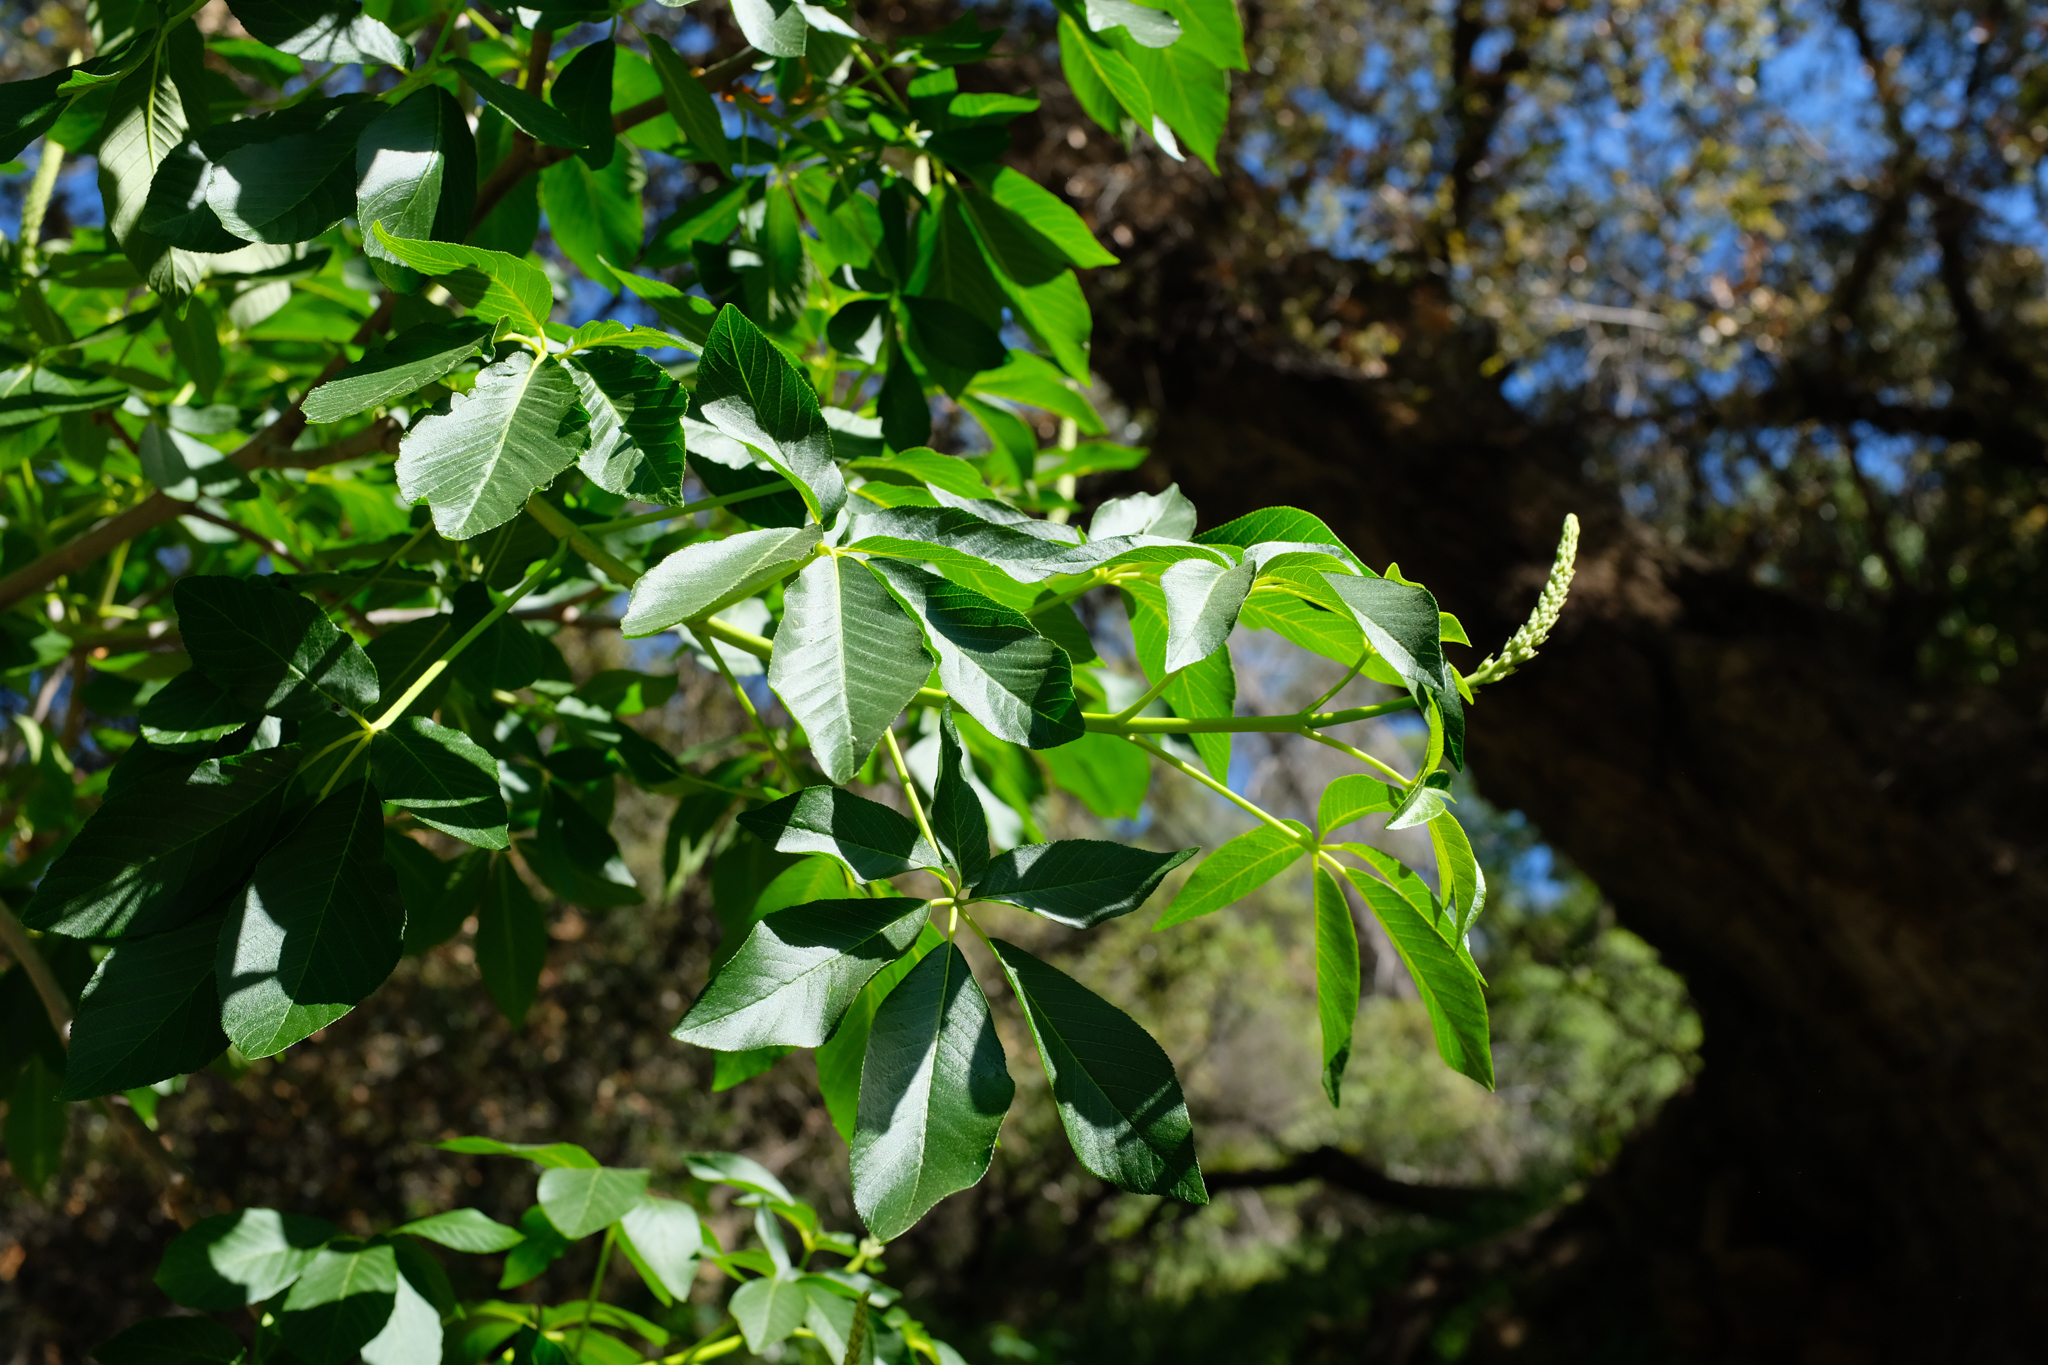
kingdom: Plantae
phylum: Tracheophyta
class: Magnoliopsida
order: Sapindales
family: Sapindaceae
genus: Aesculus
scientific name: Aesculus californica
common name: California buckeye
